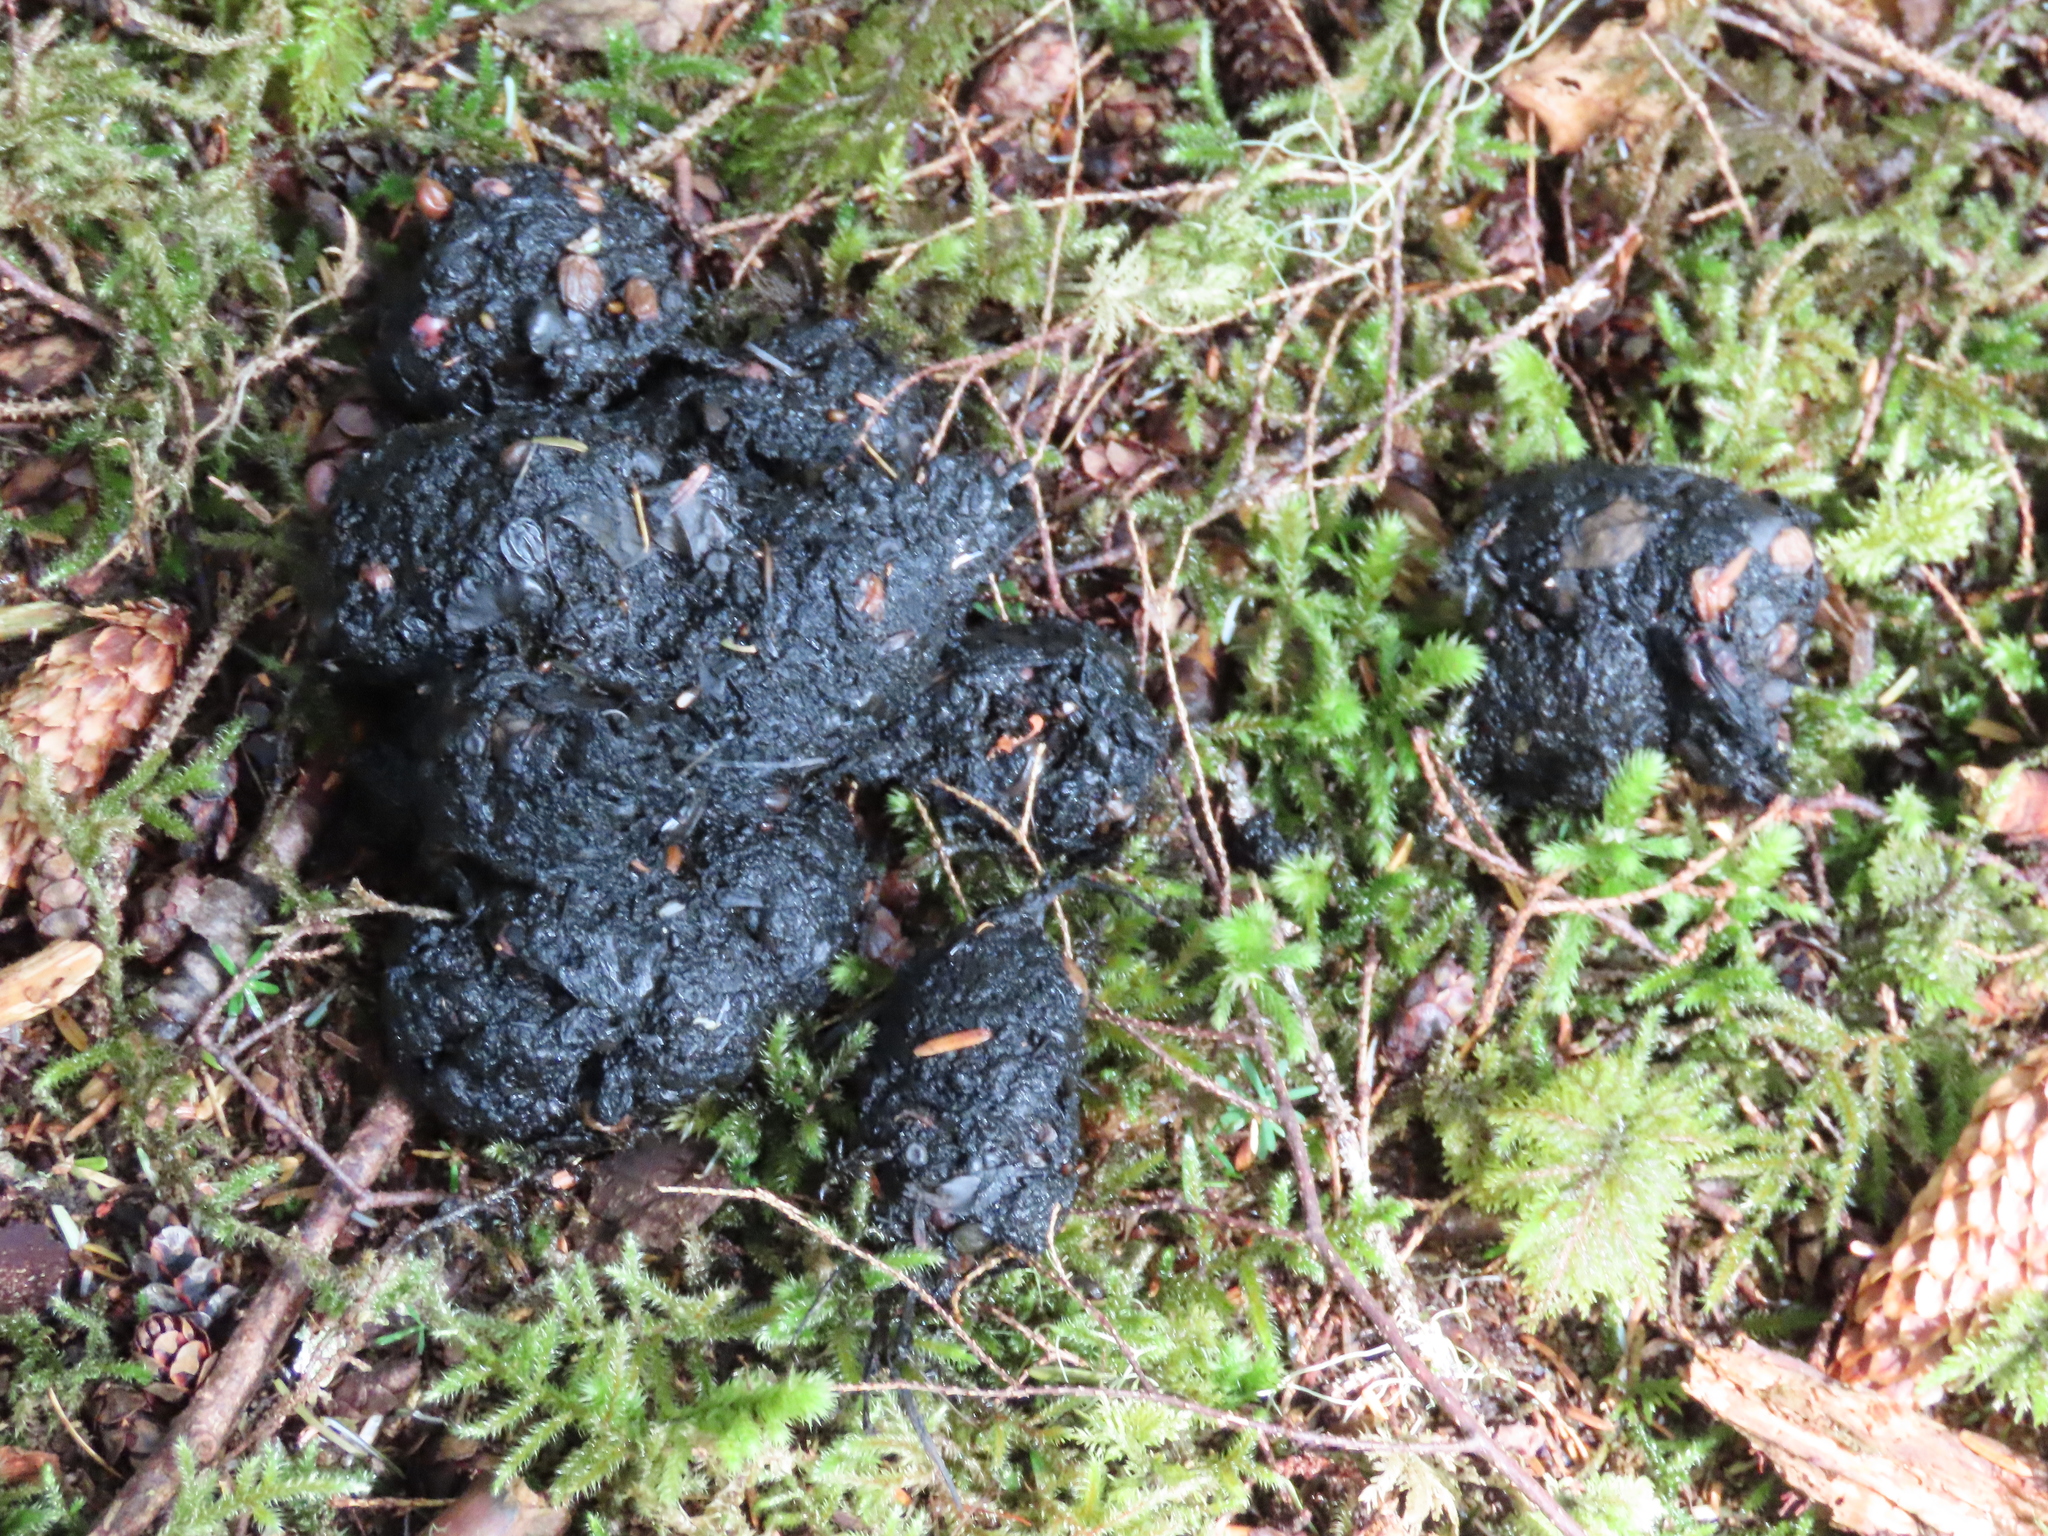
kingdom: Animalia
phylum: Chordata
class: Mammalia
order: Carnivora
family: Ursidae
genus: Ursus
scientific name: Ursus americanus
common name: American black bear
